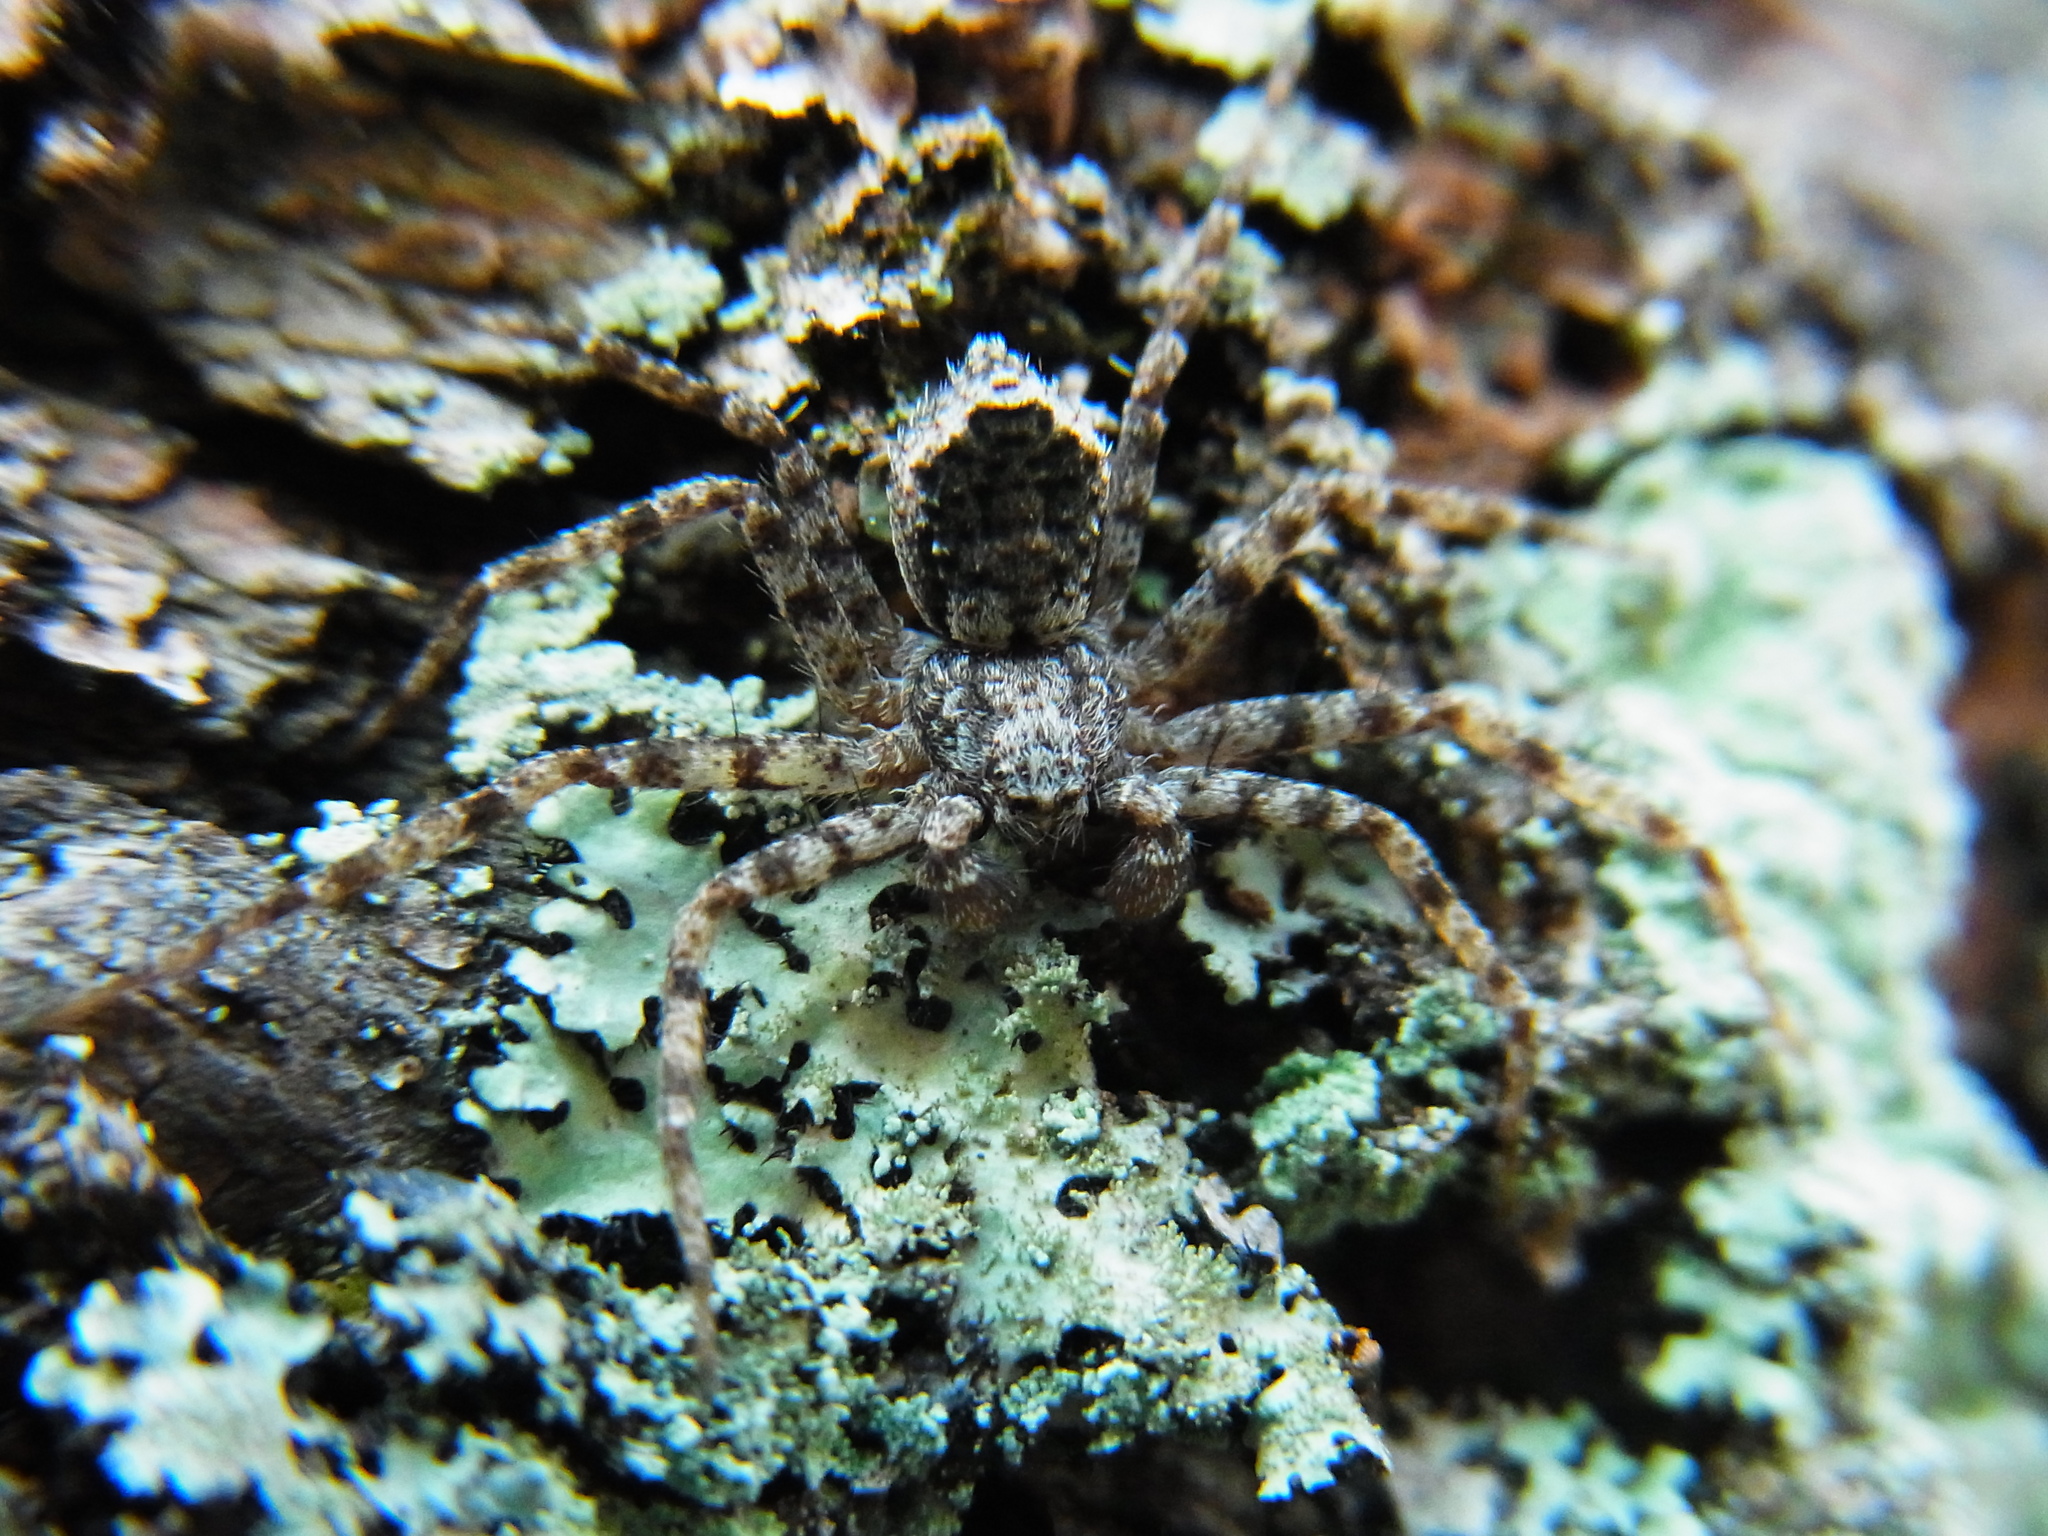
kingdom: Animalia
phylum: Arthropoda
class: Arachnida
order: Araneae
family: Philodromidae
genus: Philodromus
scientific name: Philodromus spinitarsis
